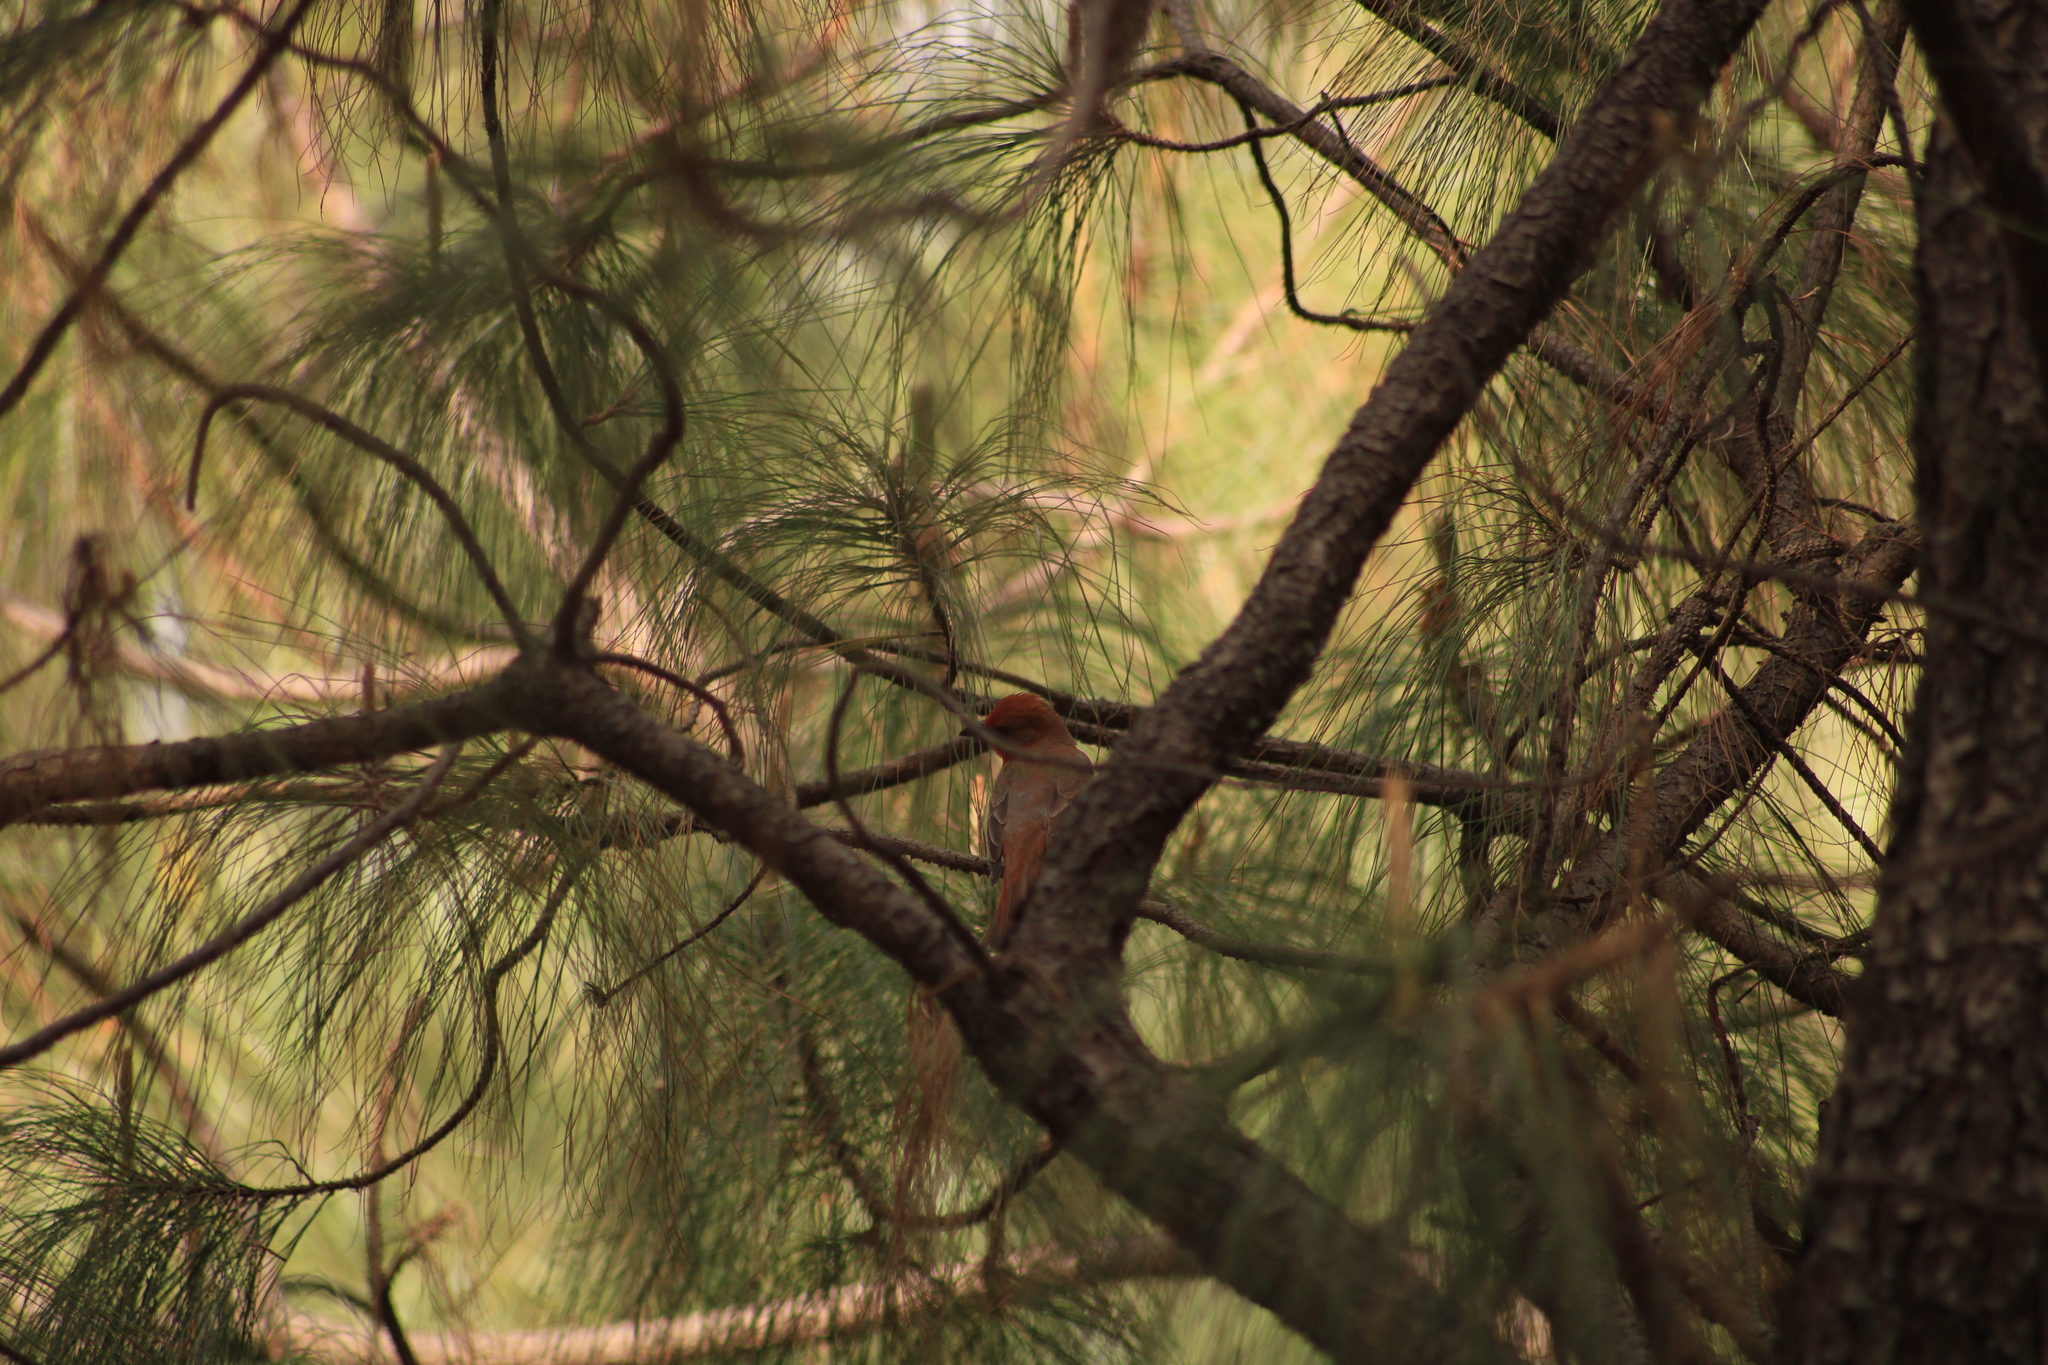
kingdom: Animalia
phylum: Chordata
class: Aves
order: Passeriformes
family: Cardinalidae
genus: Piranga
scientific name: Piranga flava
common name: Red tanager
